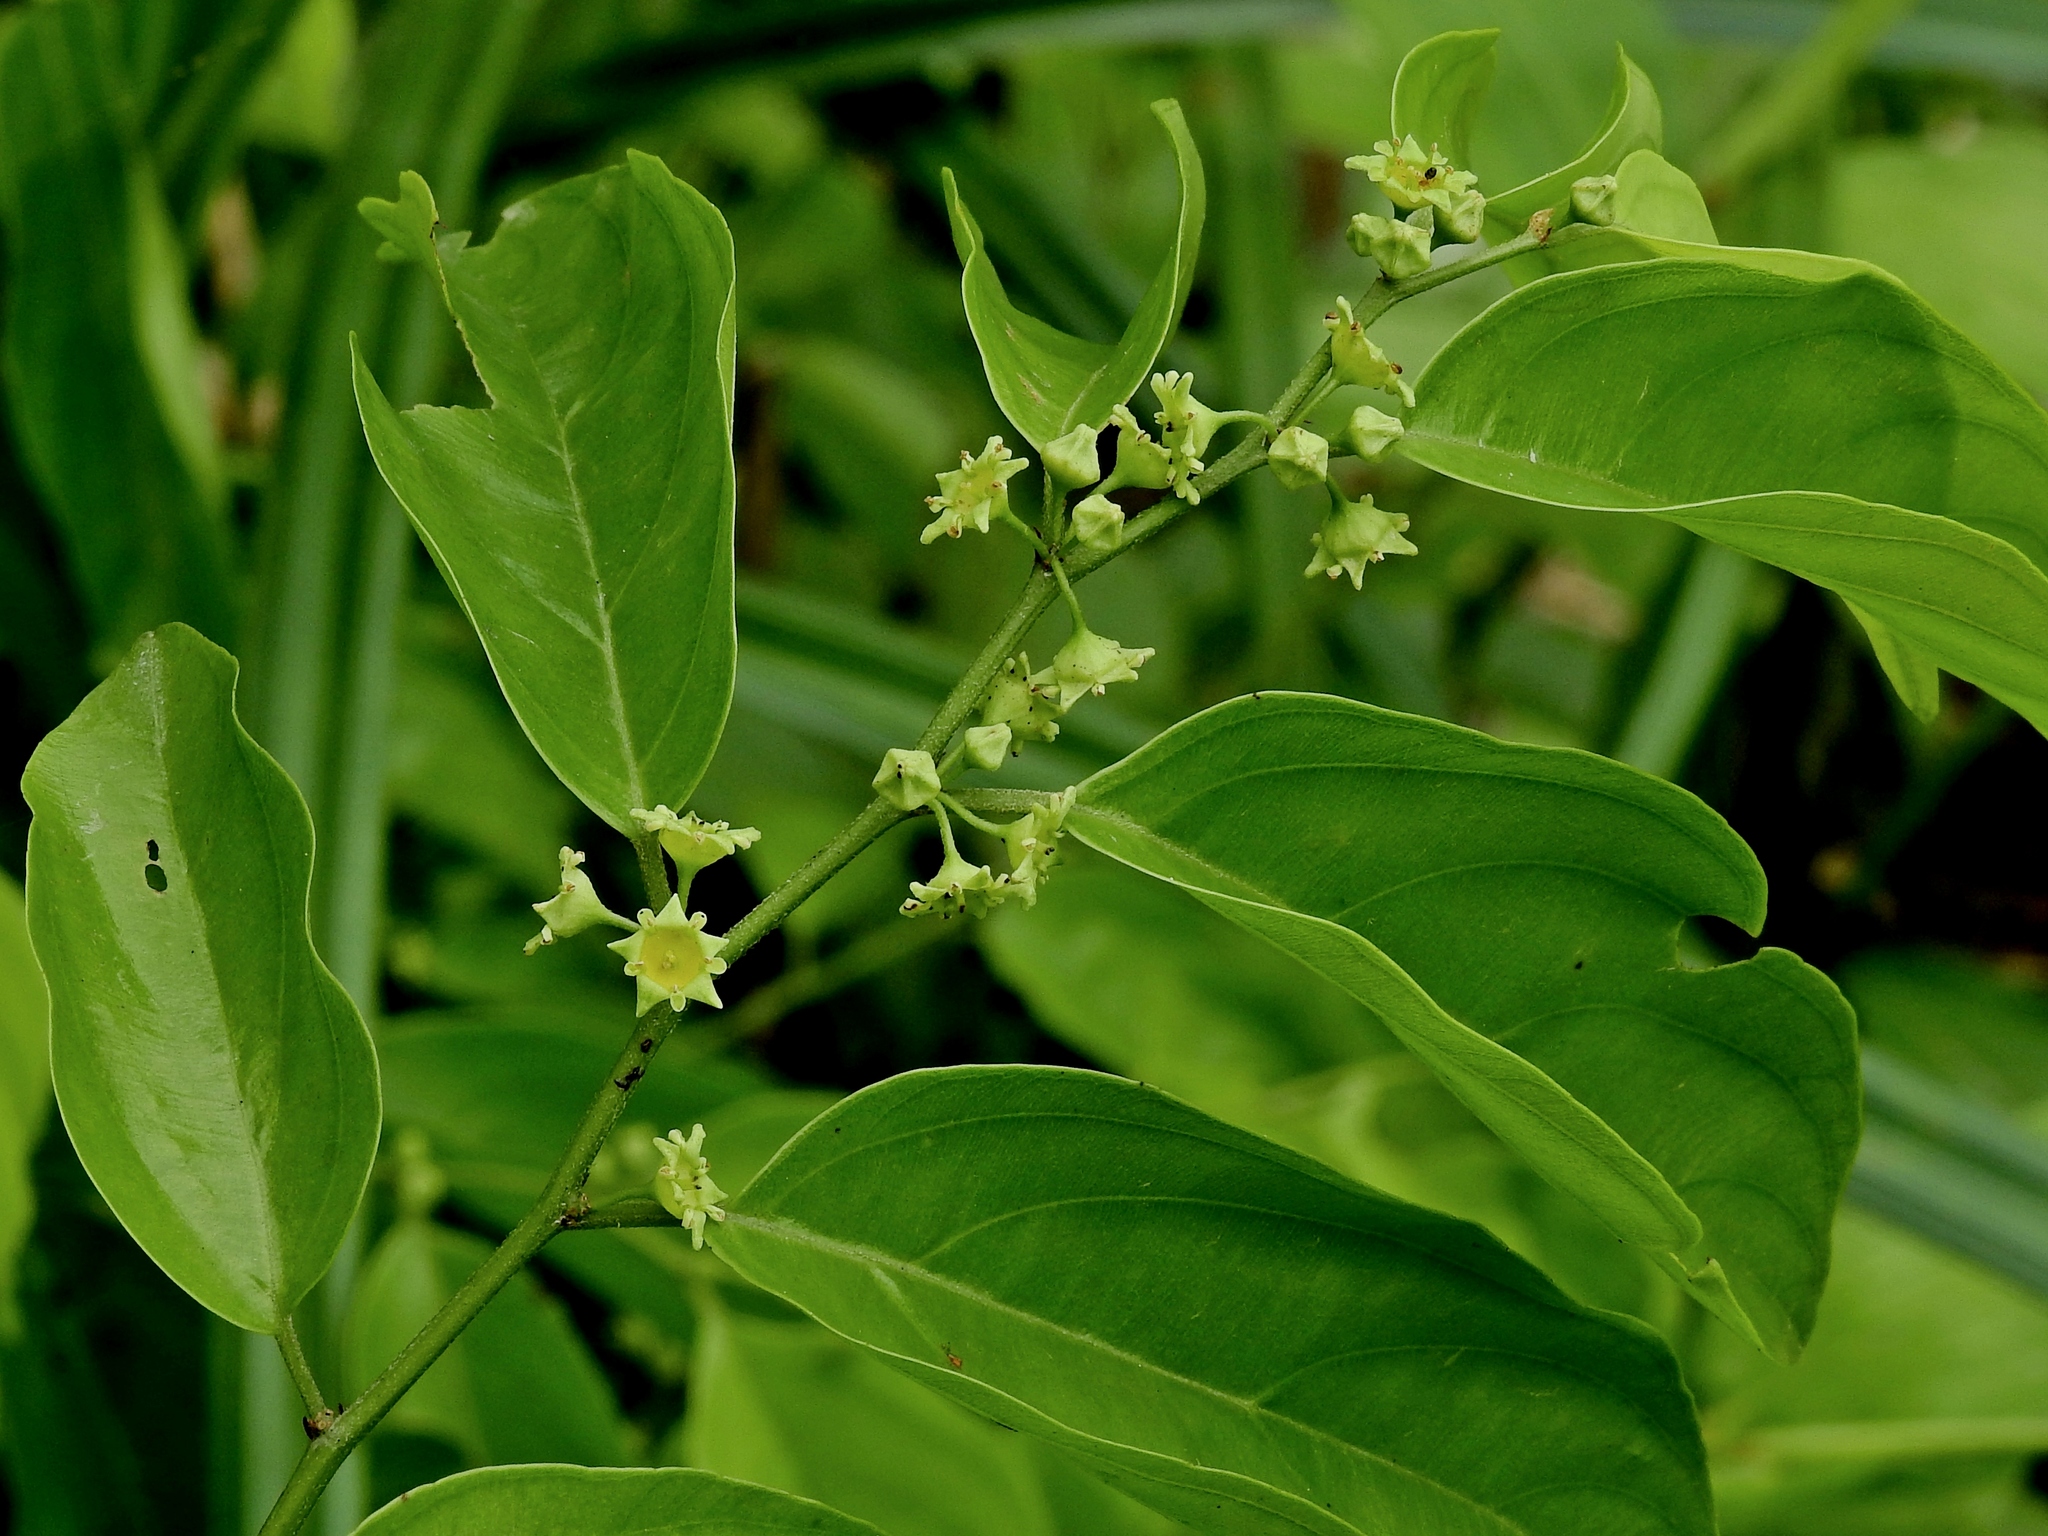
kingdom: Plantae
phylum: Tracheophyta
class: Magnoliopsida
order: Rosales
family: Rhamnaceae
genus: Ventilago
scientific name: Ventilago leiocarpa
